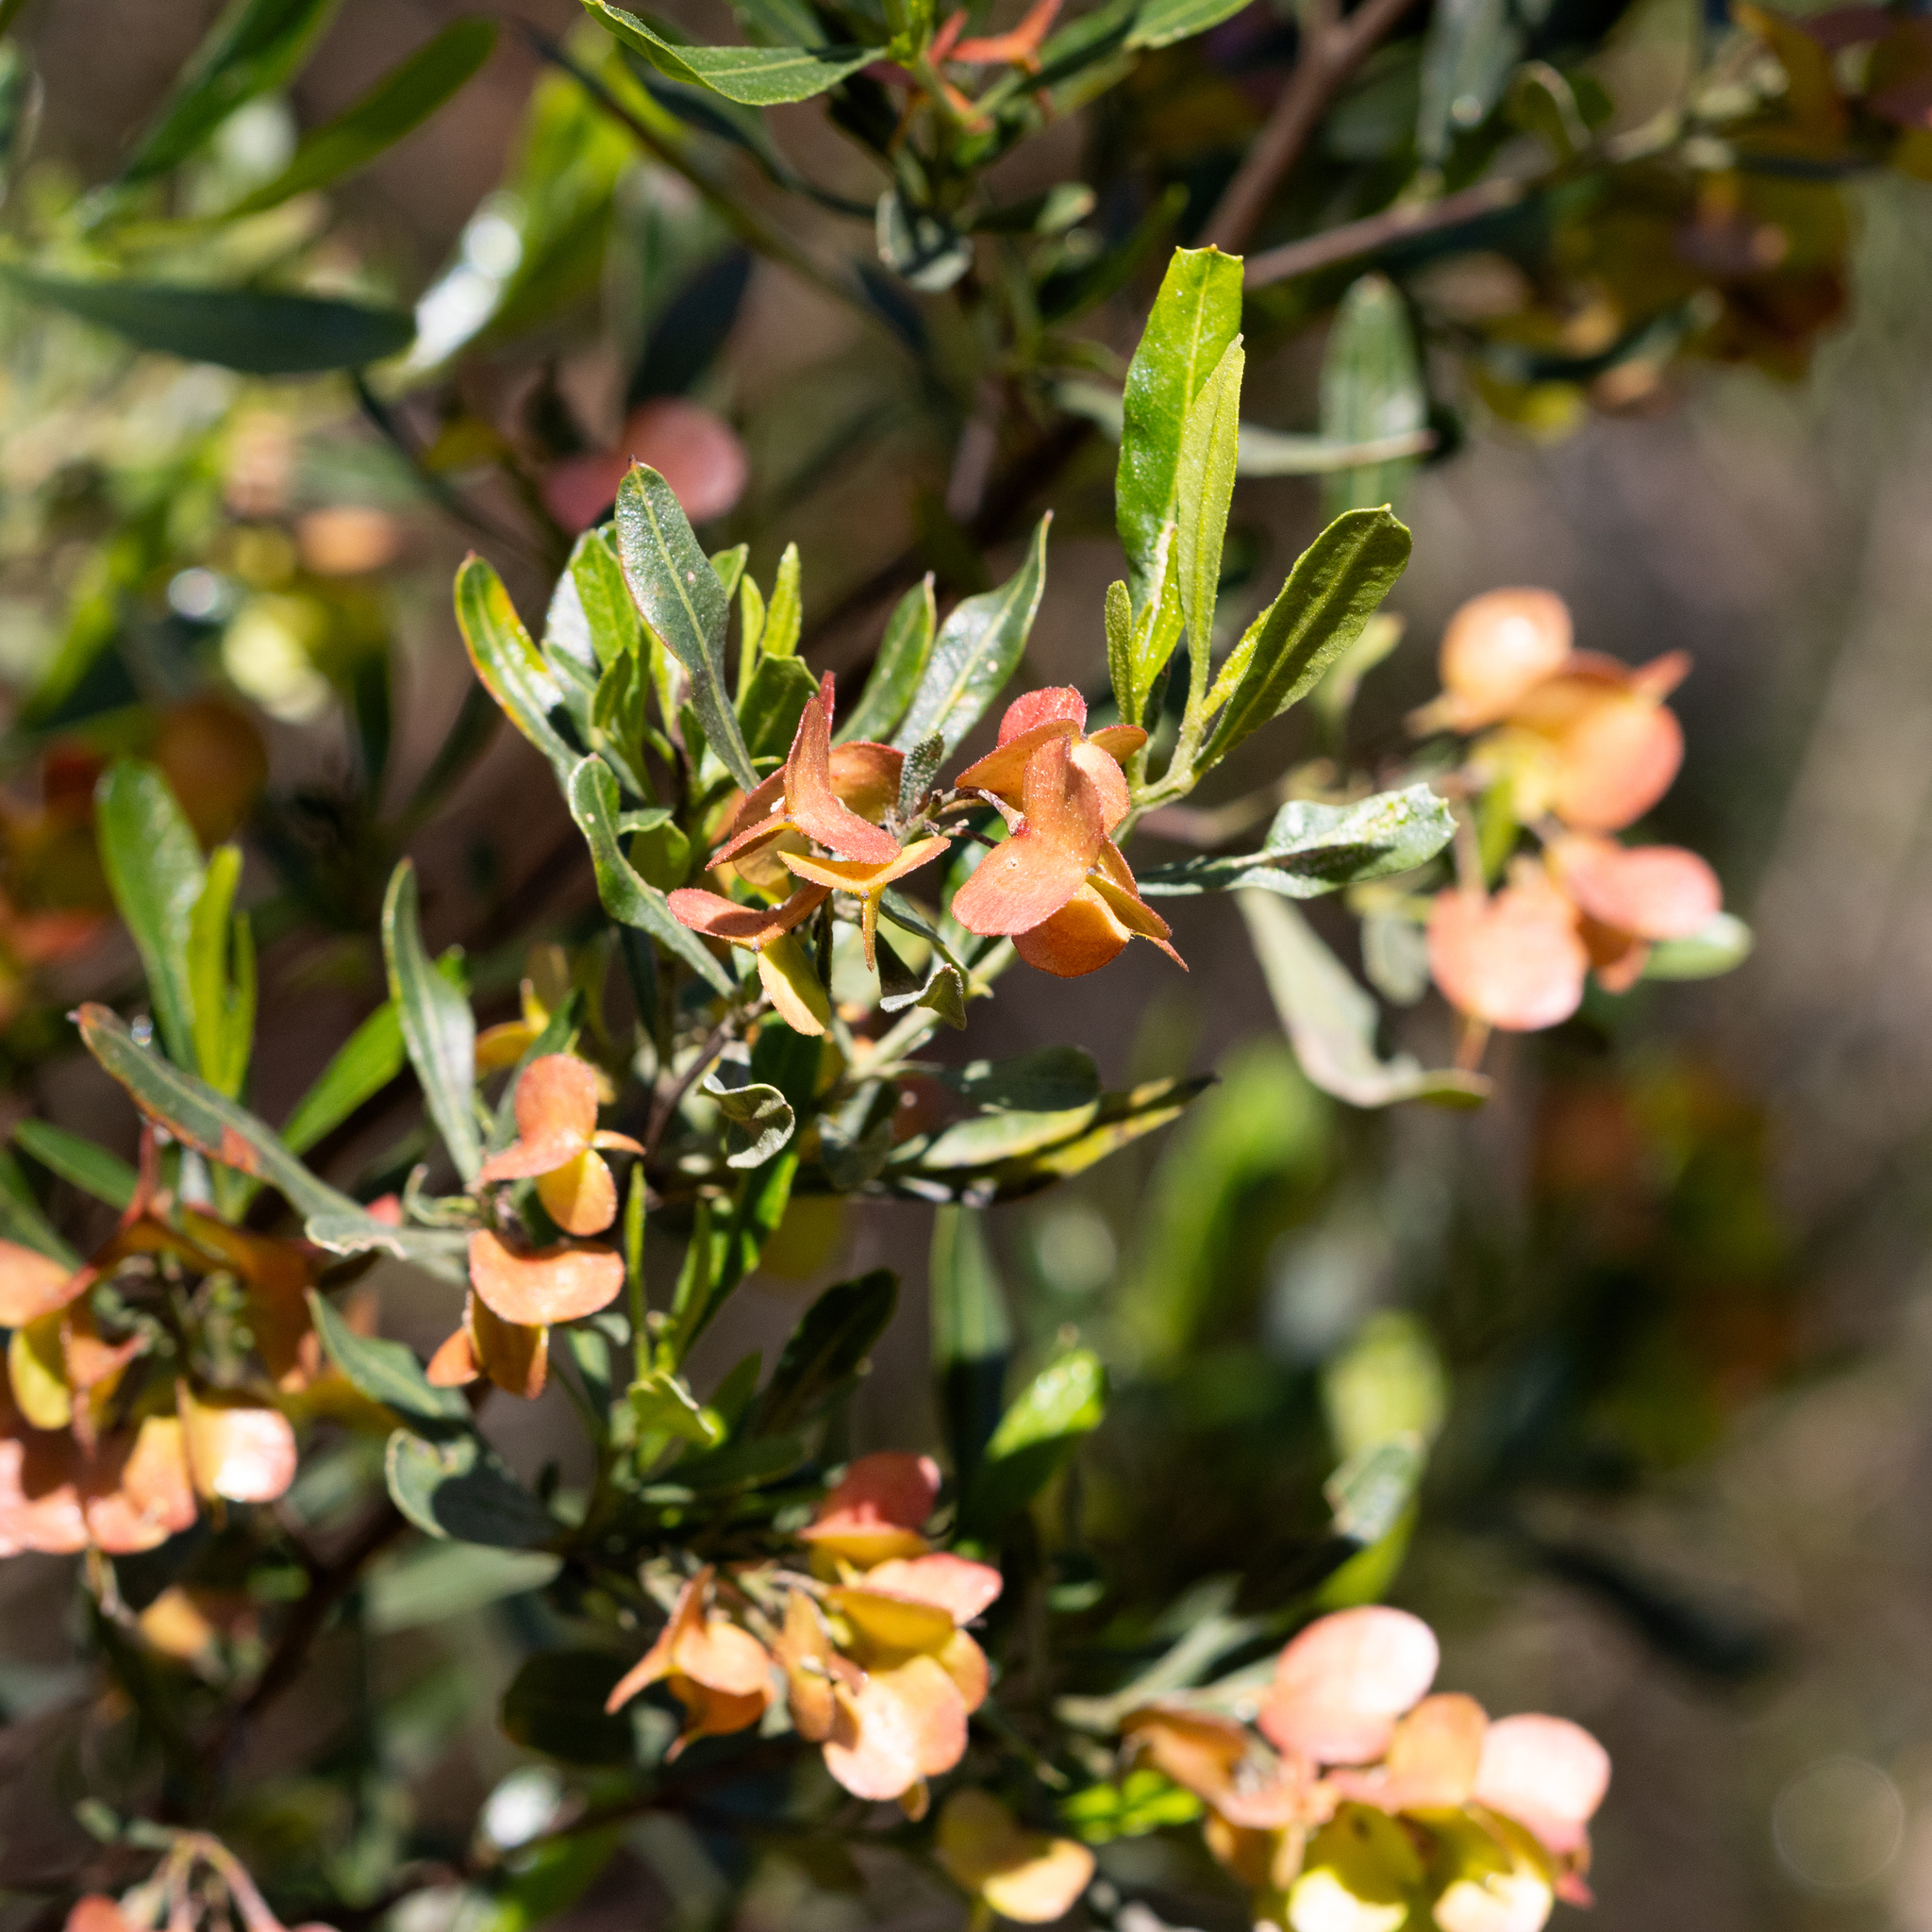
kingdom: Plantae
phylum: Tracheophyta
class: Magnoliopsida
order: Sapindales
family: Sapindaceae
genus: Dodonaea
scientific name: Dodonaea viscosa
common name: Hopbush
